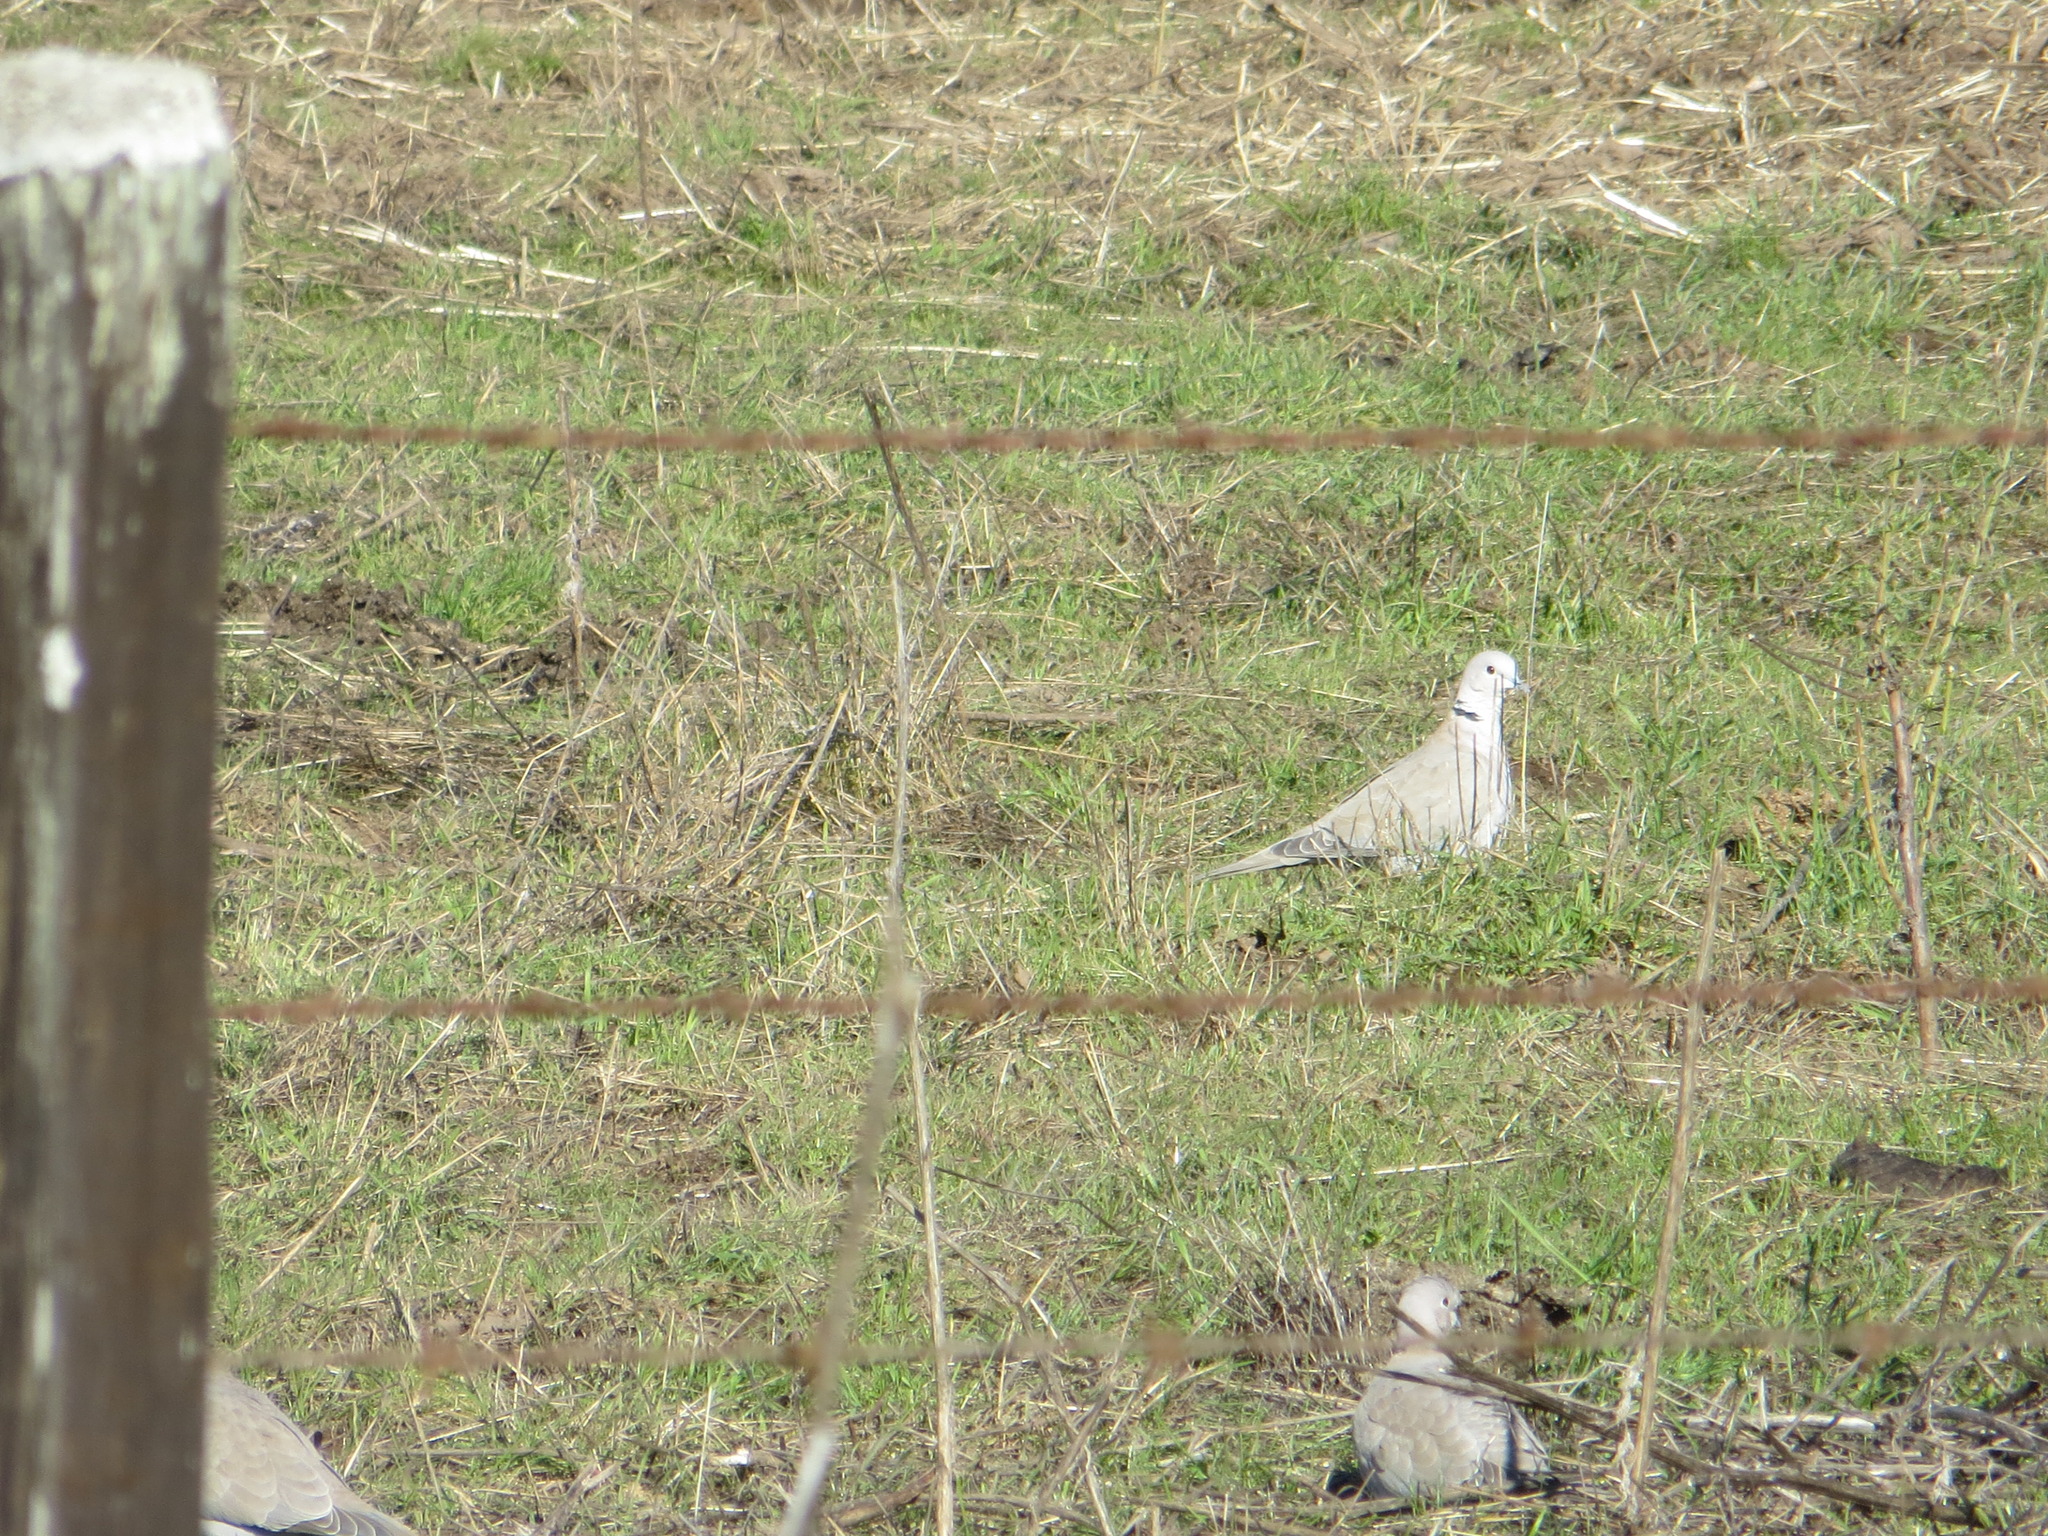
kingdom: Animalia
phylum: Chordata
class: Aves
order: Columbiformes
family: Columbidae
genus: Streptopelia
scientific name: Streptopelia decaocto
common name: Eurasian collared dove
